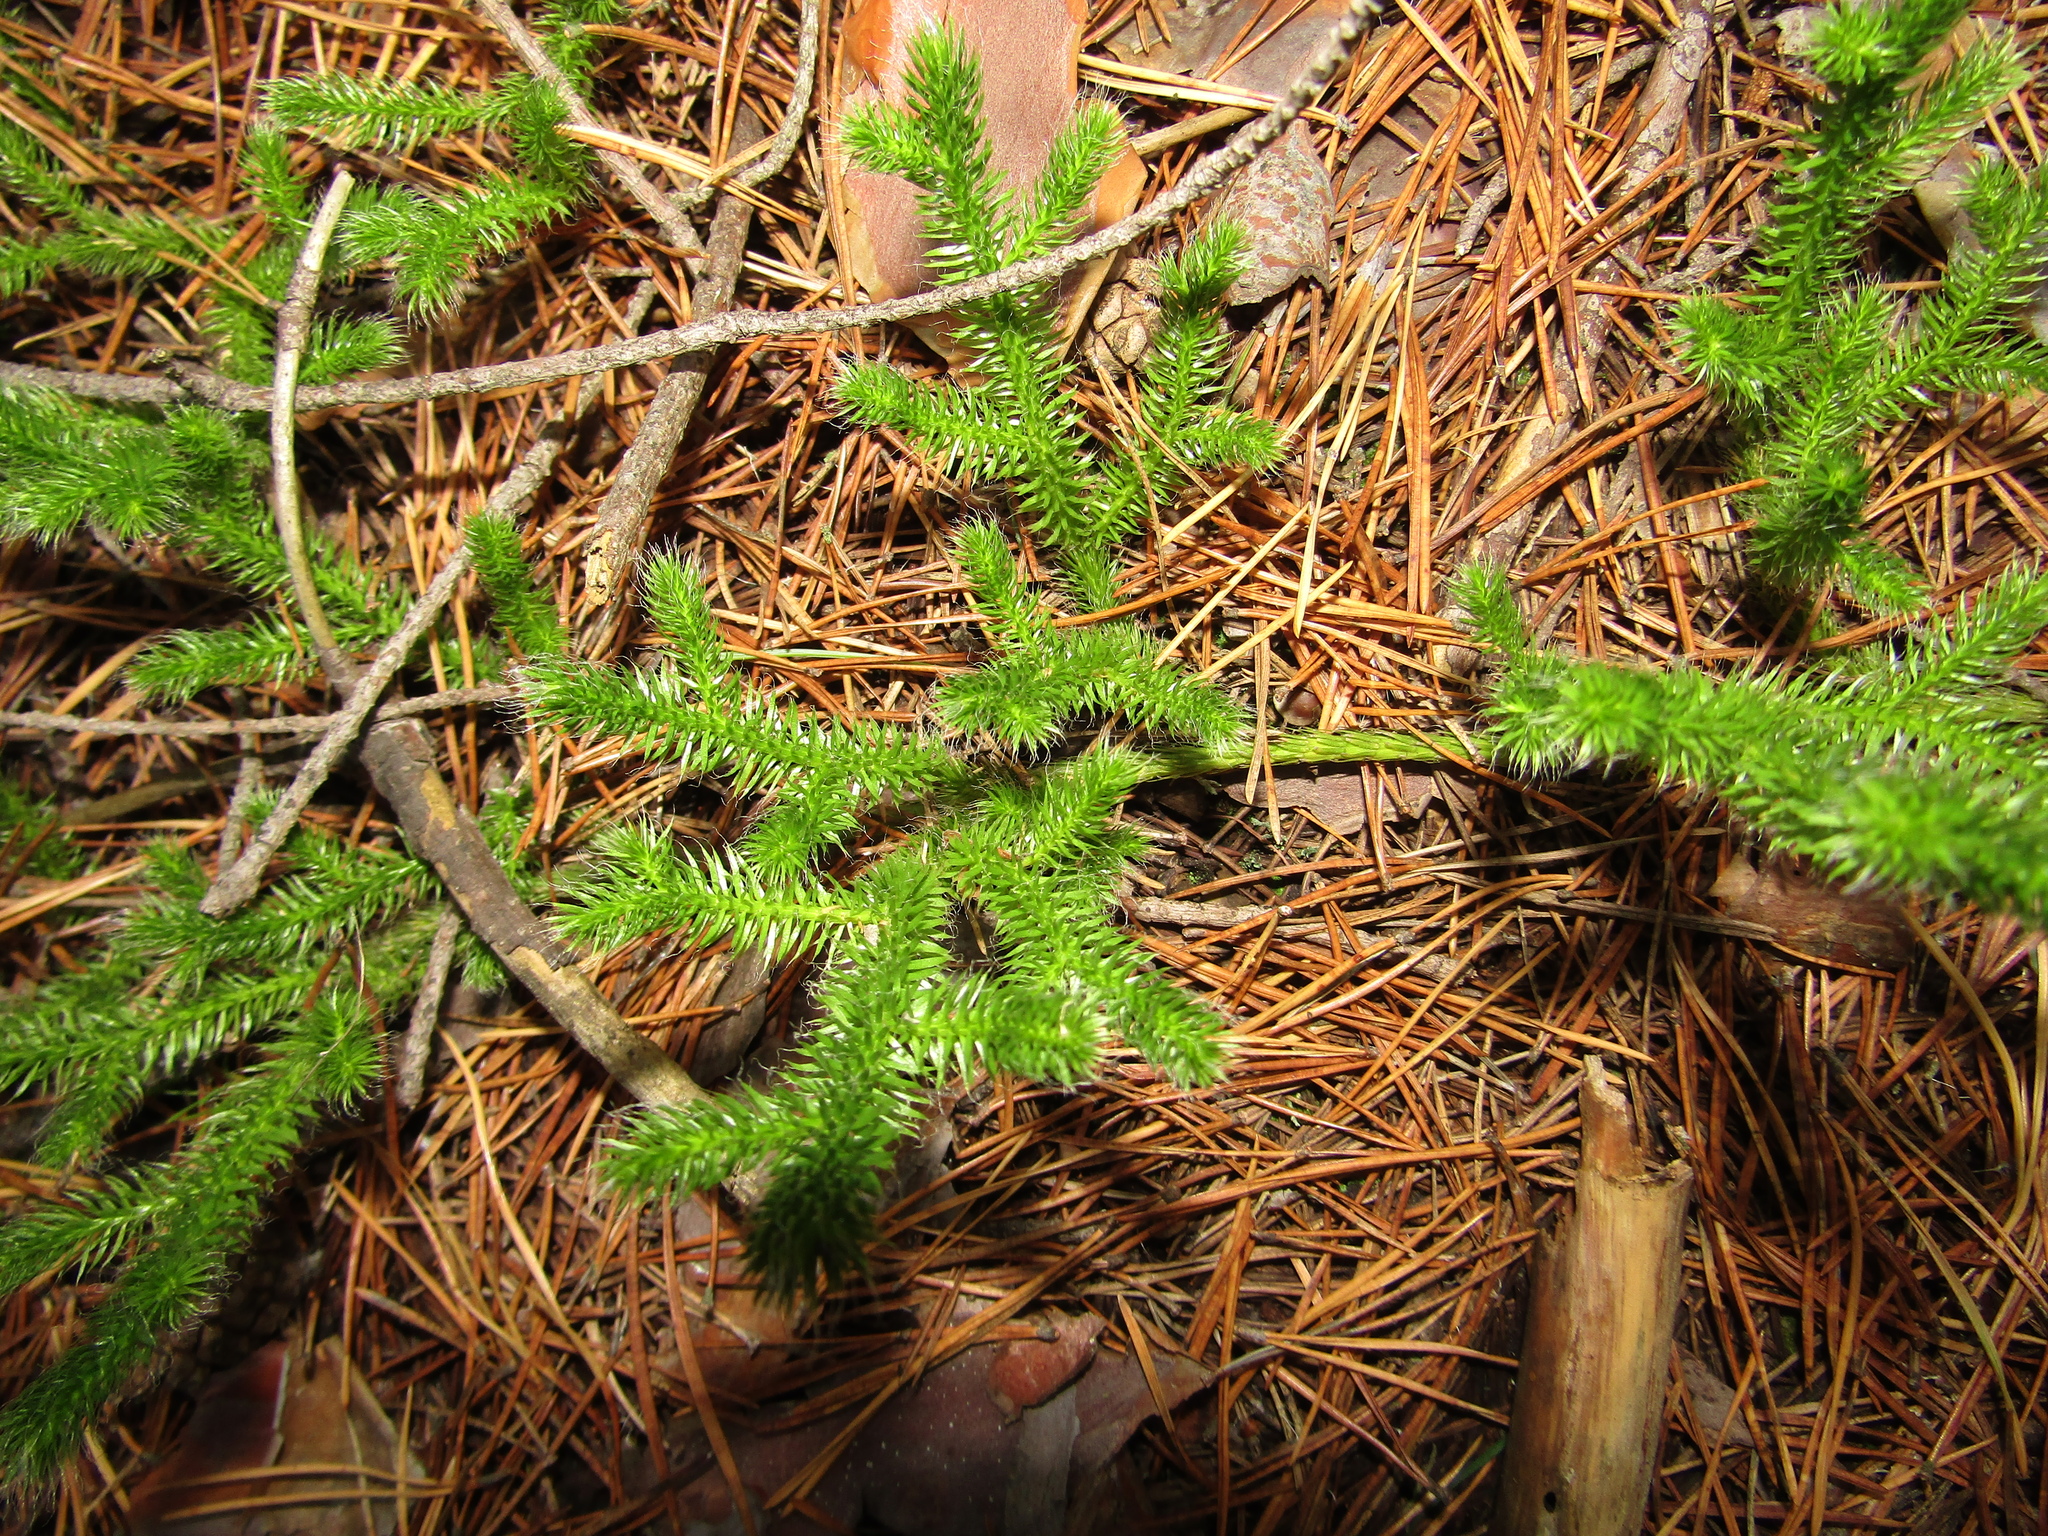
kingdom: Plantae
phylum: Tracheophyta
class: Lycopodiopsida
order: Lycopodiales
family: Lycopodiaceae
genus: Lycopodium
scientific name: Lycopodium clavatum
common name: Stag's-horn clubmoss
